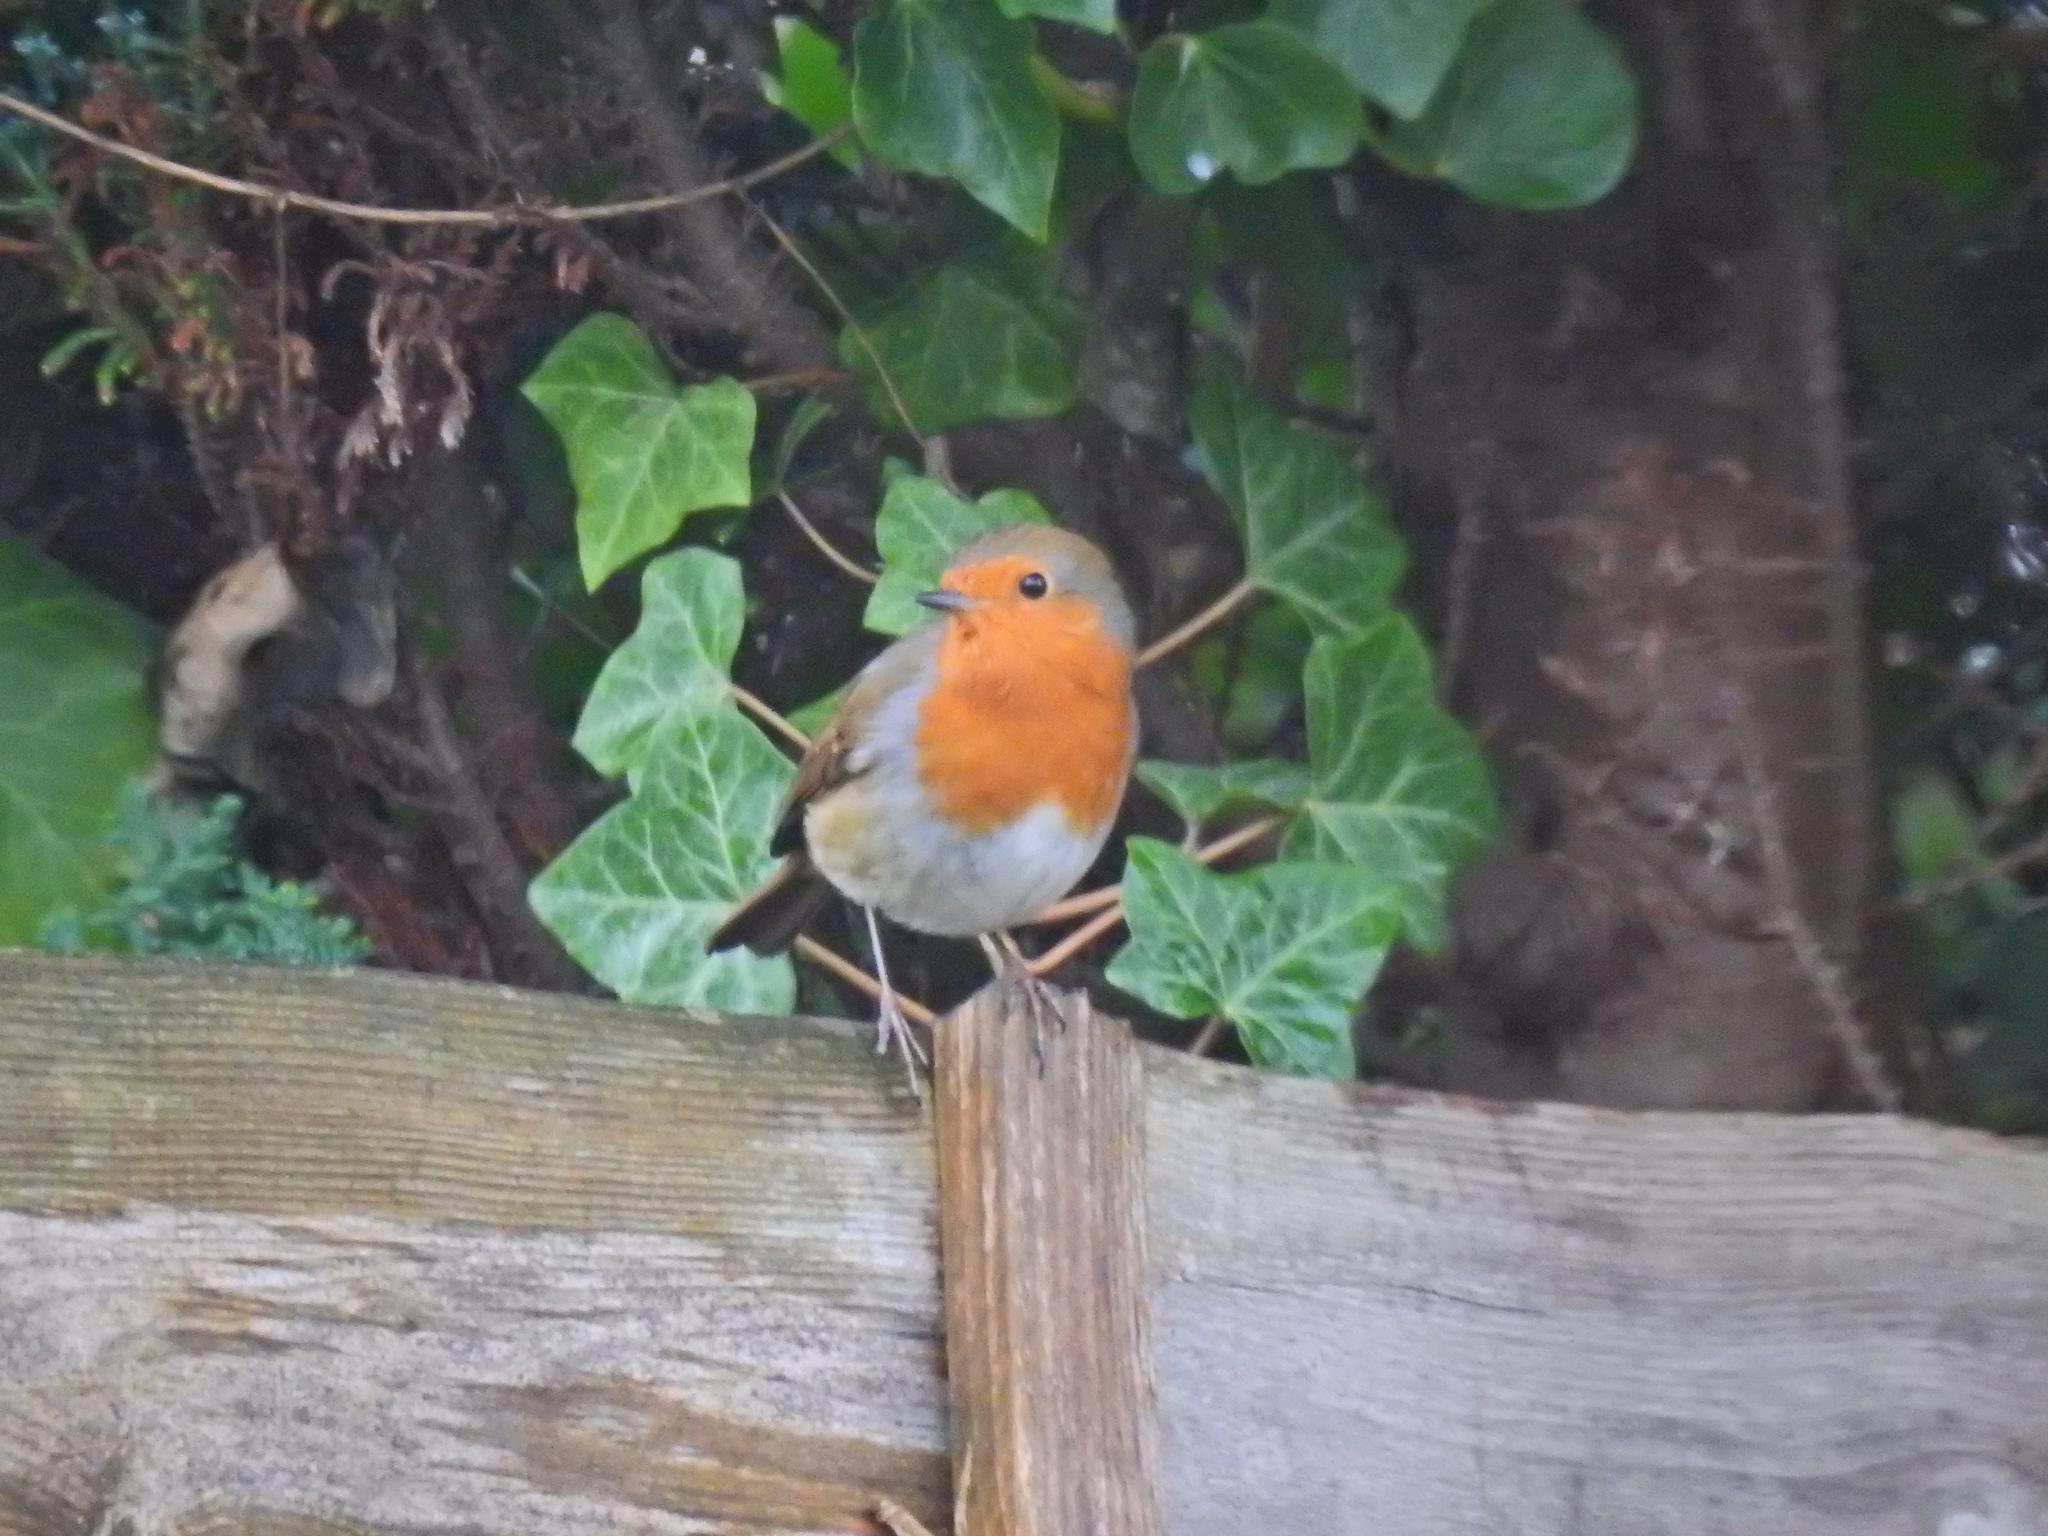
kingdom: Animalia
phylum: Chordata
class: Aves
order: Passeriformes
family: Muscicapidae
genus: Erithacus
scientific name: Erithacus rubecula
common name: European robin
